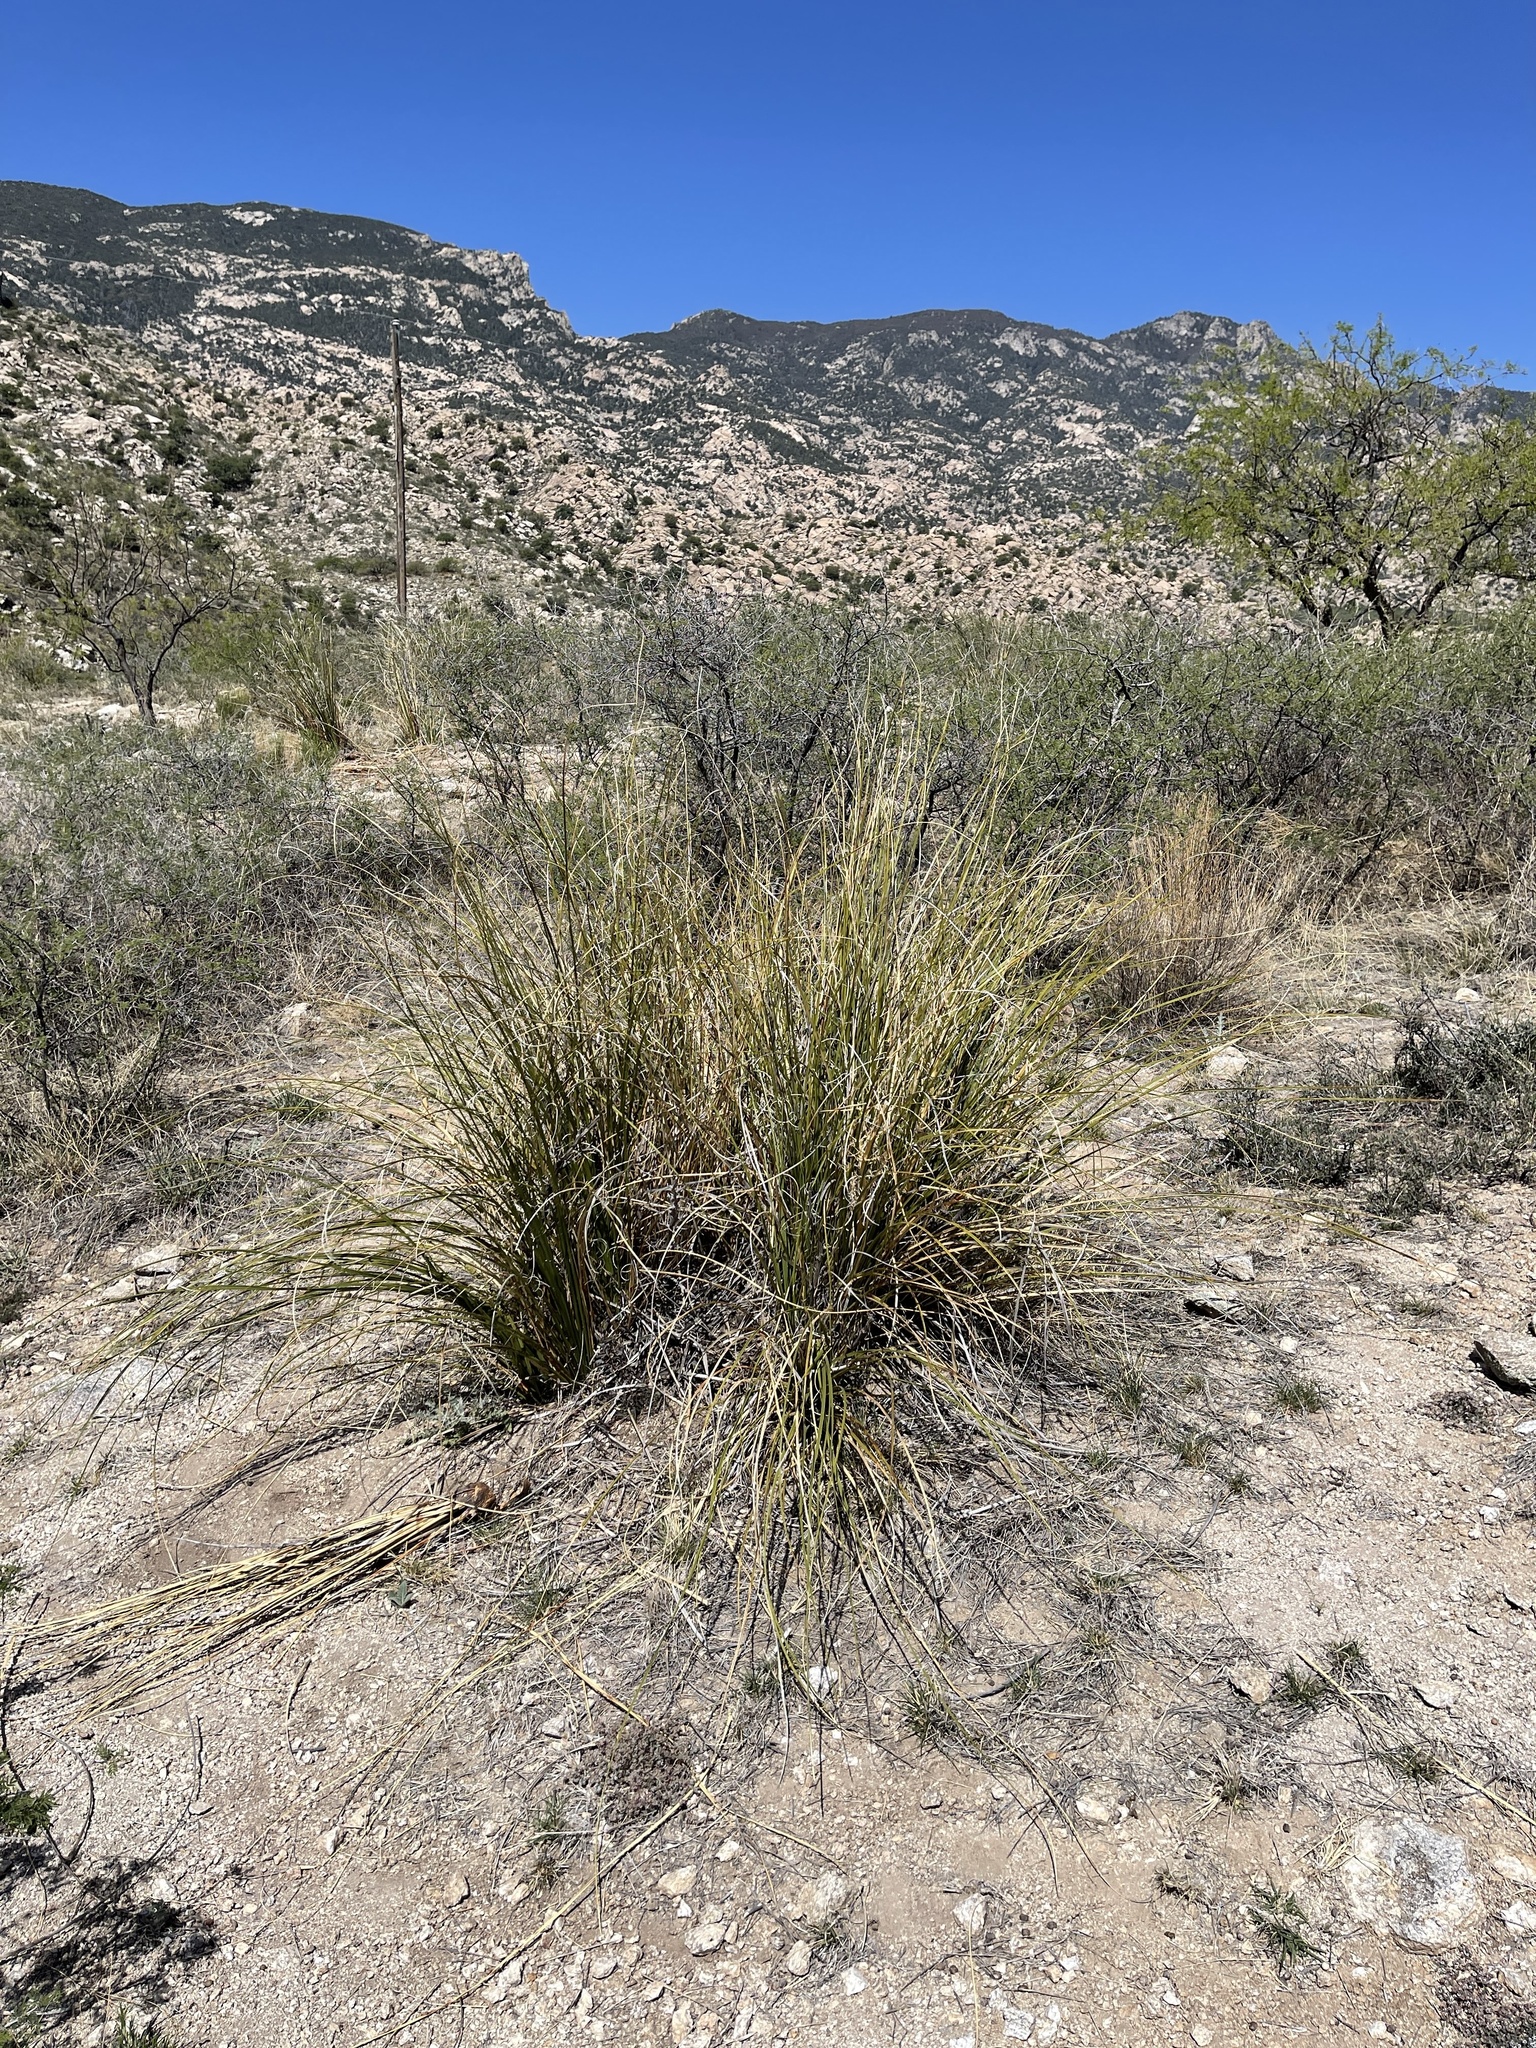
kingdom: Plantae
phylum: Tracheophyta
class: Liliopsida
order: Asparagales
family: Asparagaceae
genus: Nolina
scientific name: Nolina microcarpa
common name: Bear-grass
